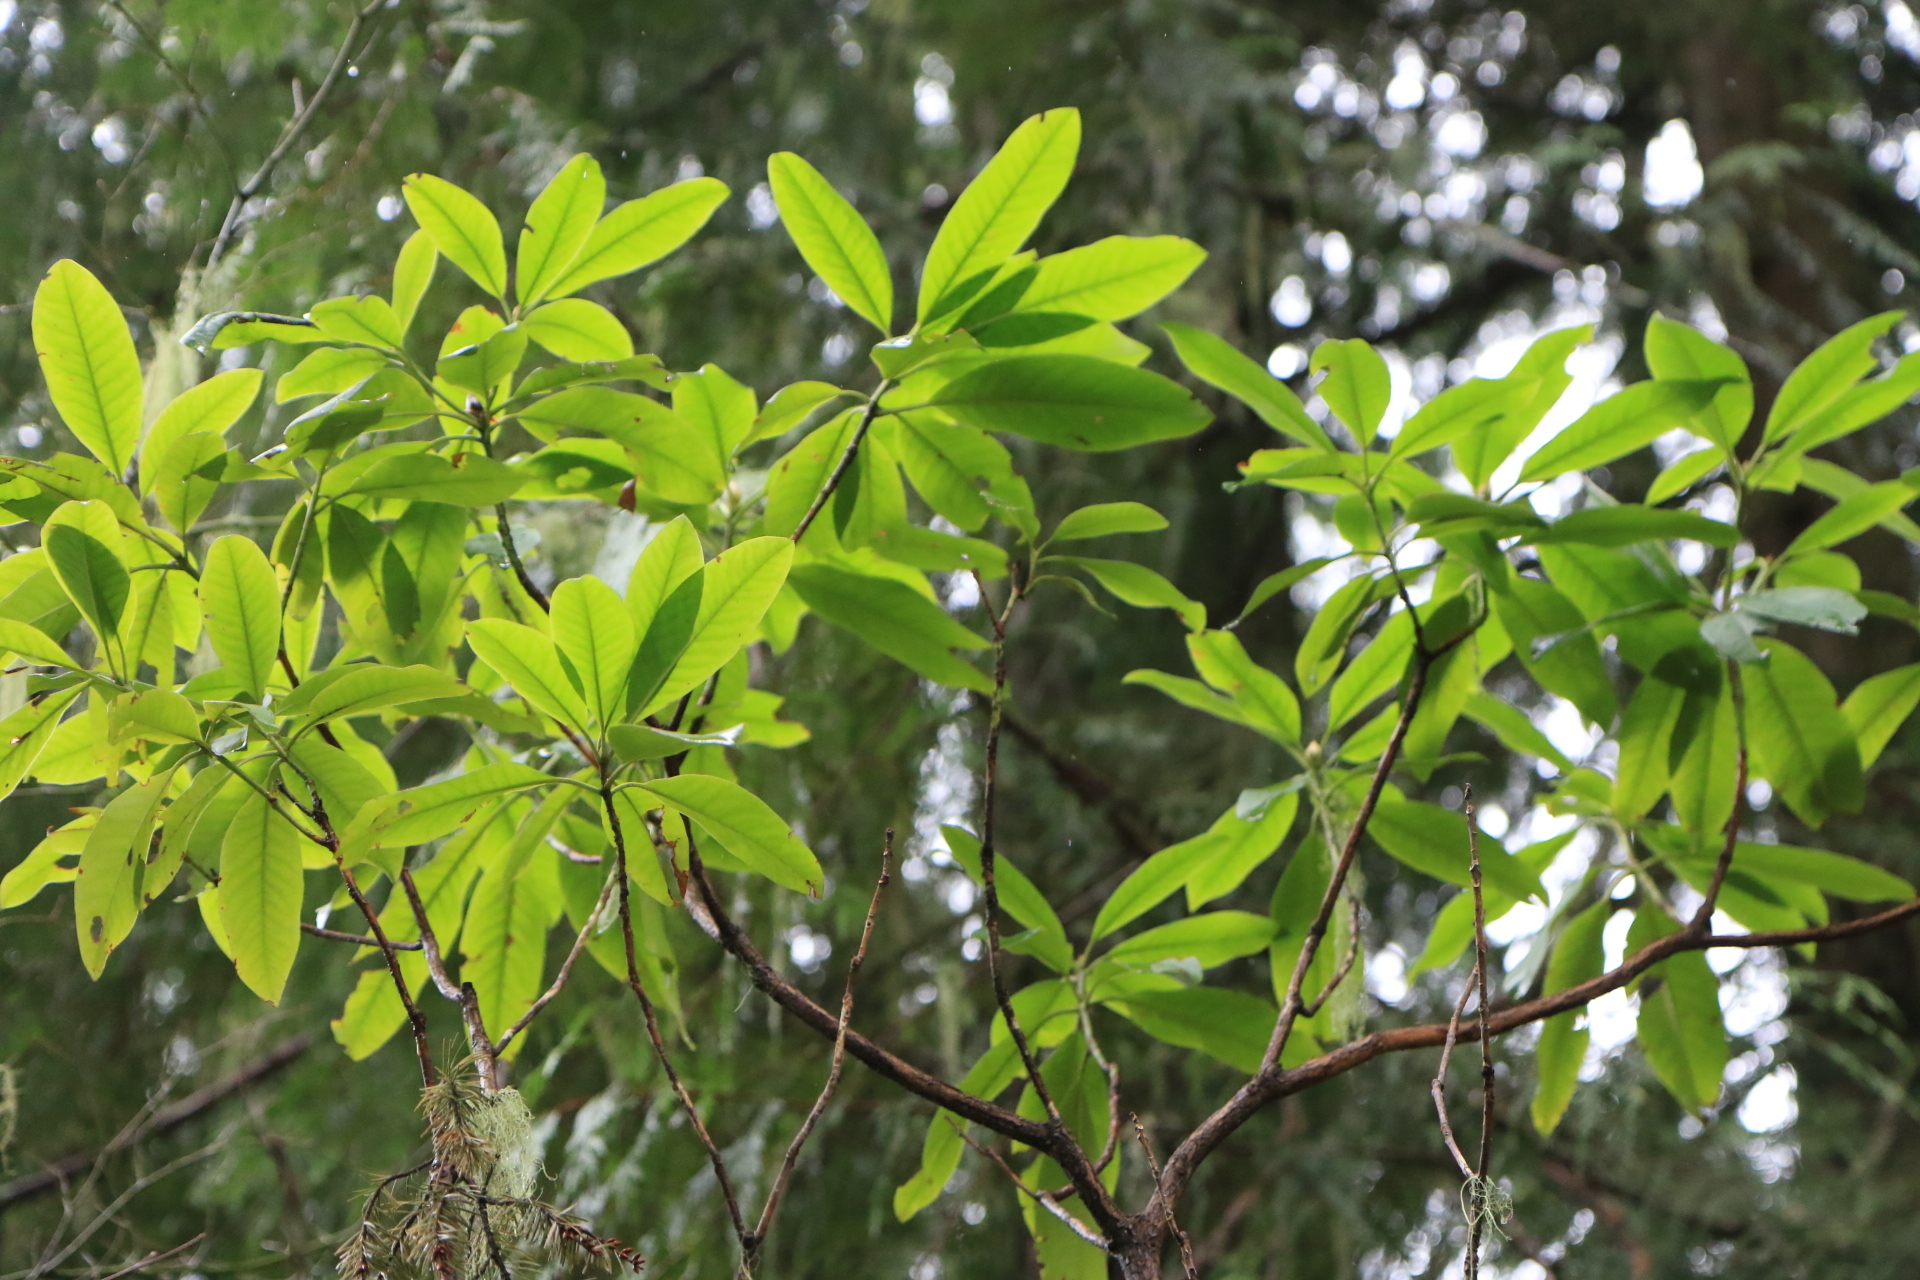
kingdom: Plantae
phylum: Tracheophyta
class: Magnoliopsida
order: Ericales
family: Ericaceae
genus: Rhododendron
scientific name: Rhododendron macrophyllum
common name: California rose bay
